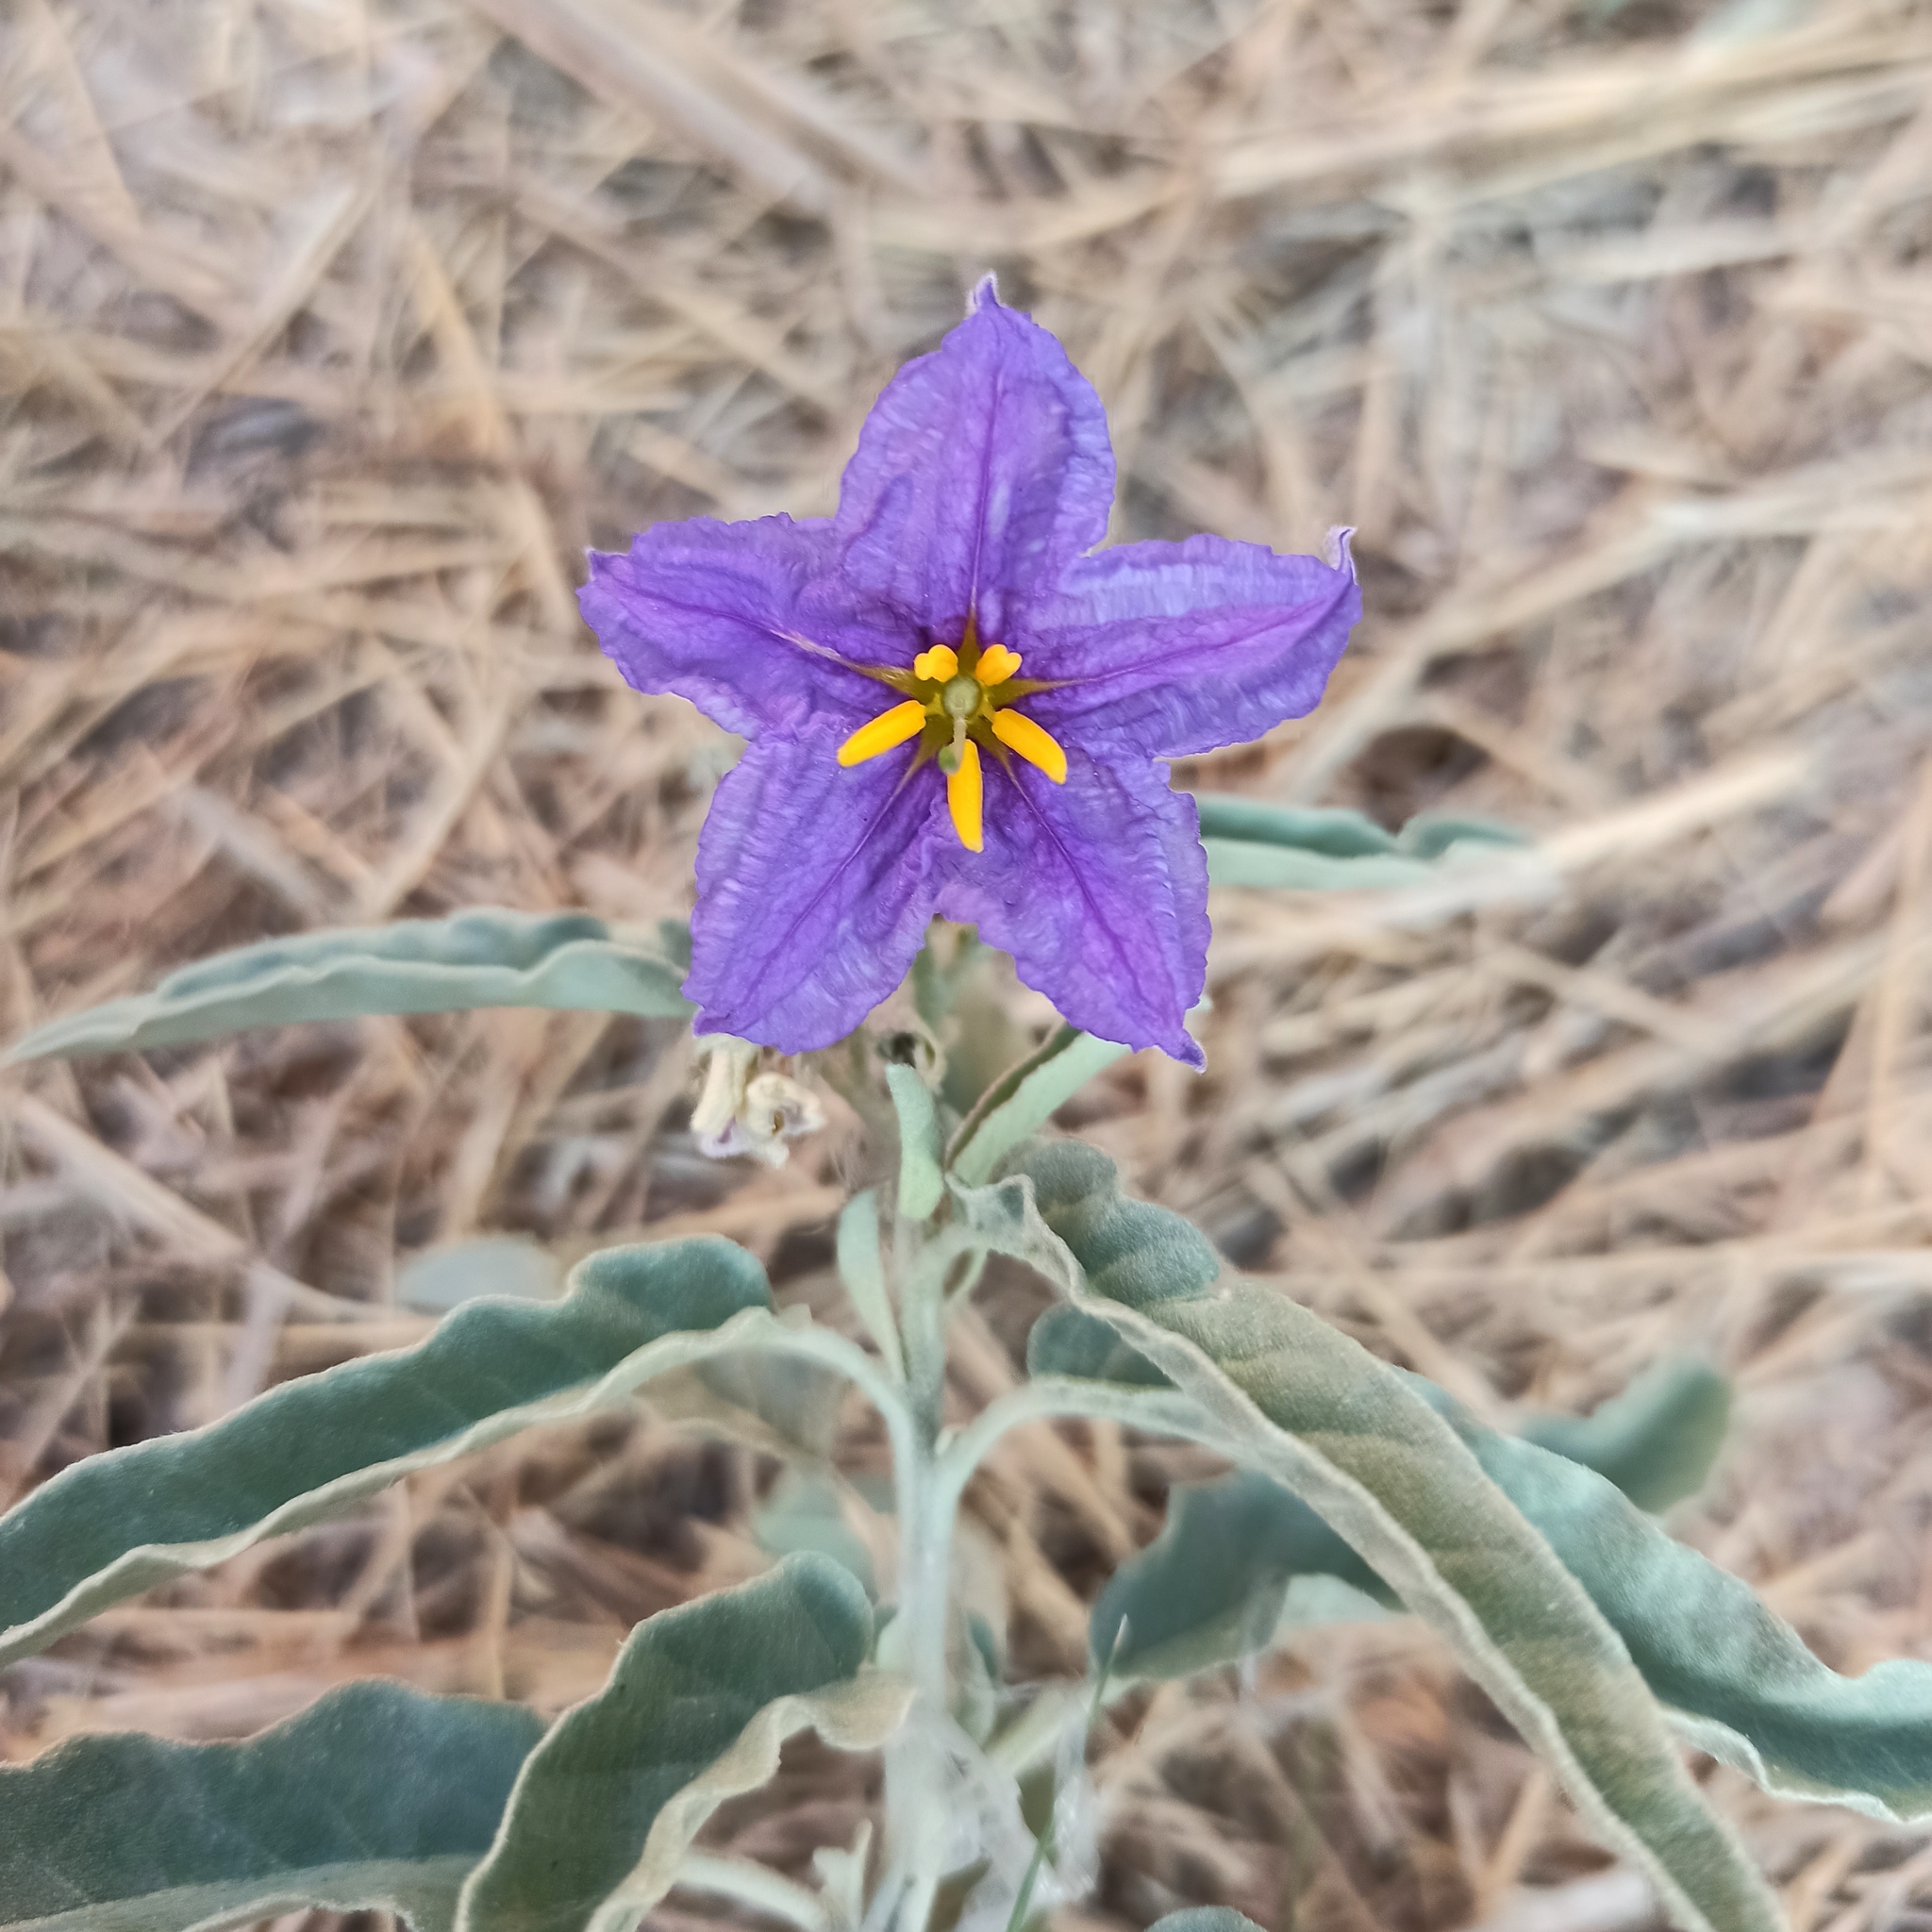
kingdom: Plantae
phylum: Tracheophyta
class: Magnoliopsida
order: Solanales
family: Solanaceae
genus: Solanum
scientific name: Solanum elaeagnifolium
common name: Silverleaf nightshade
